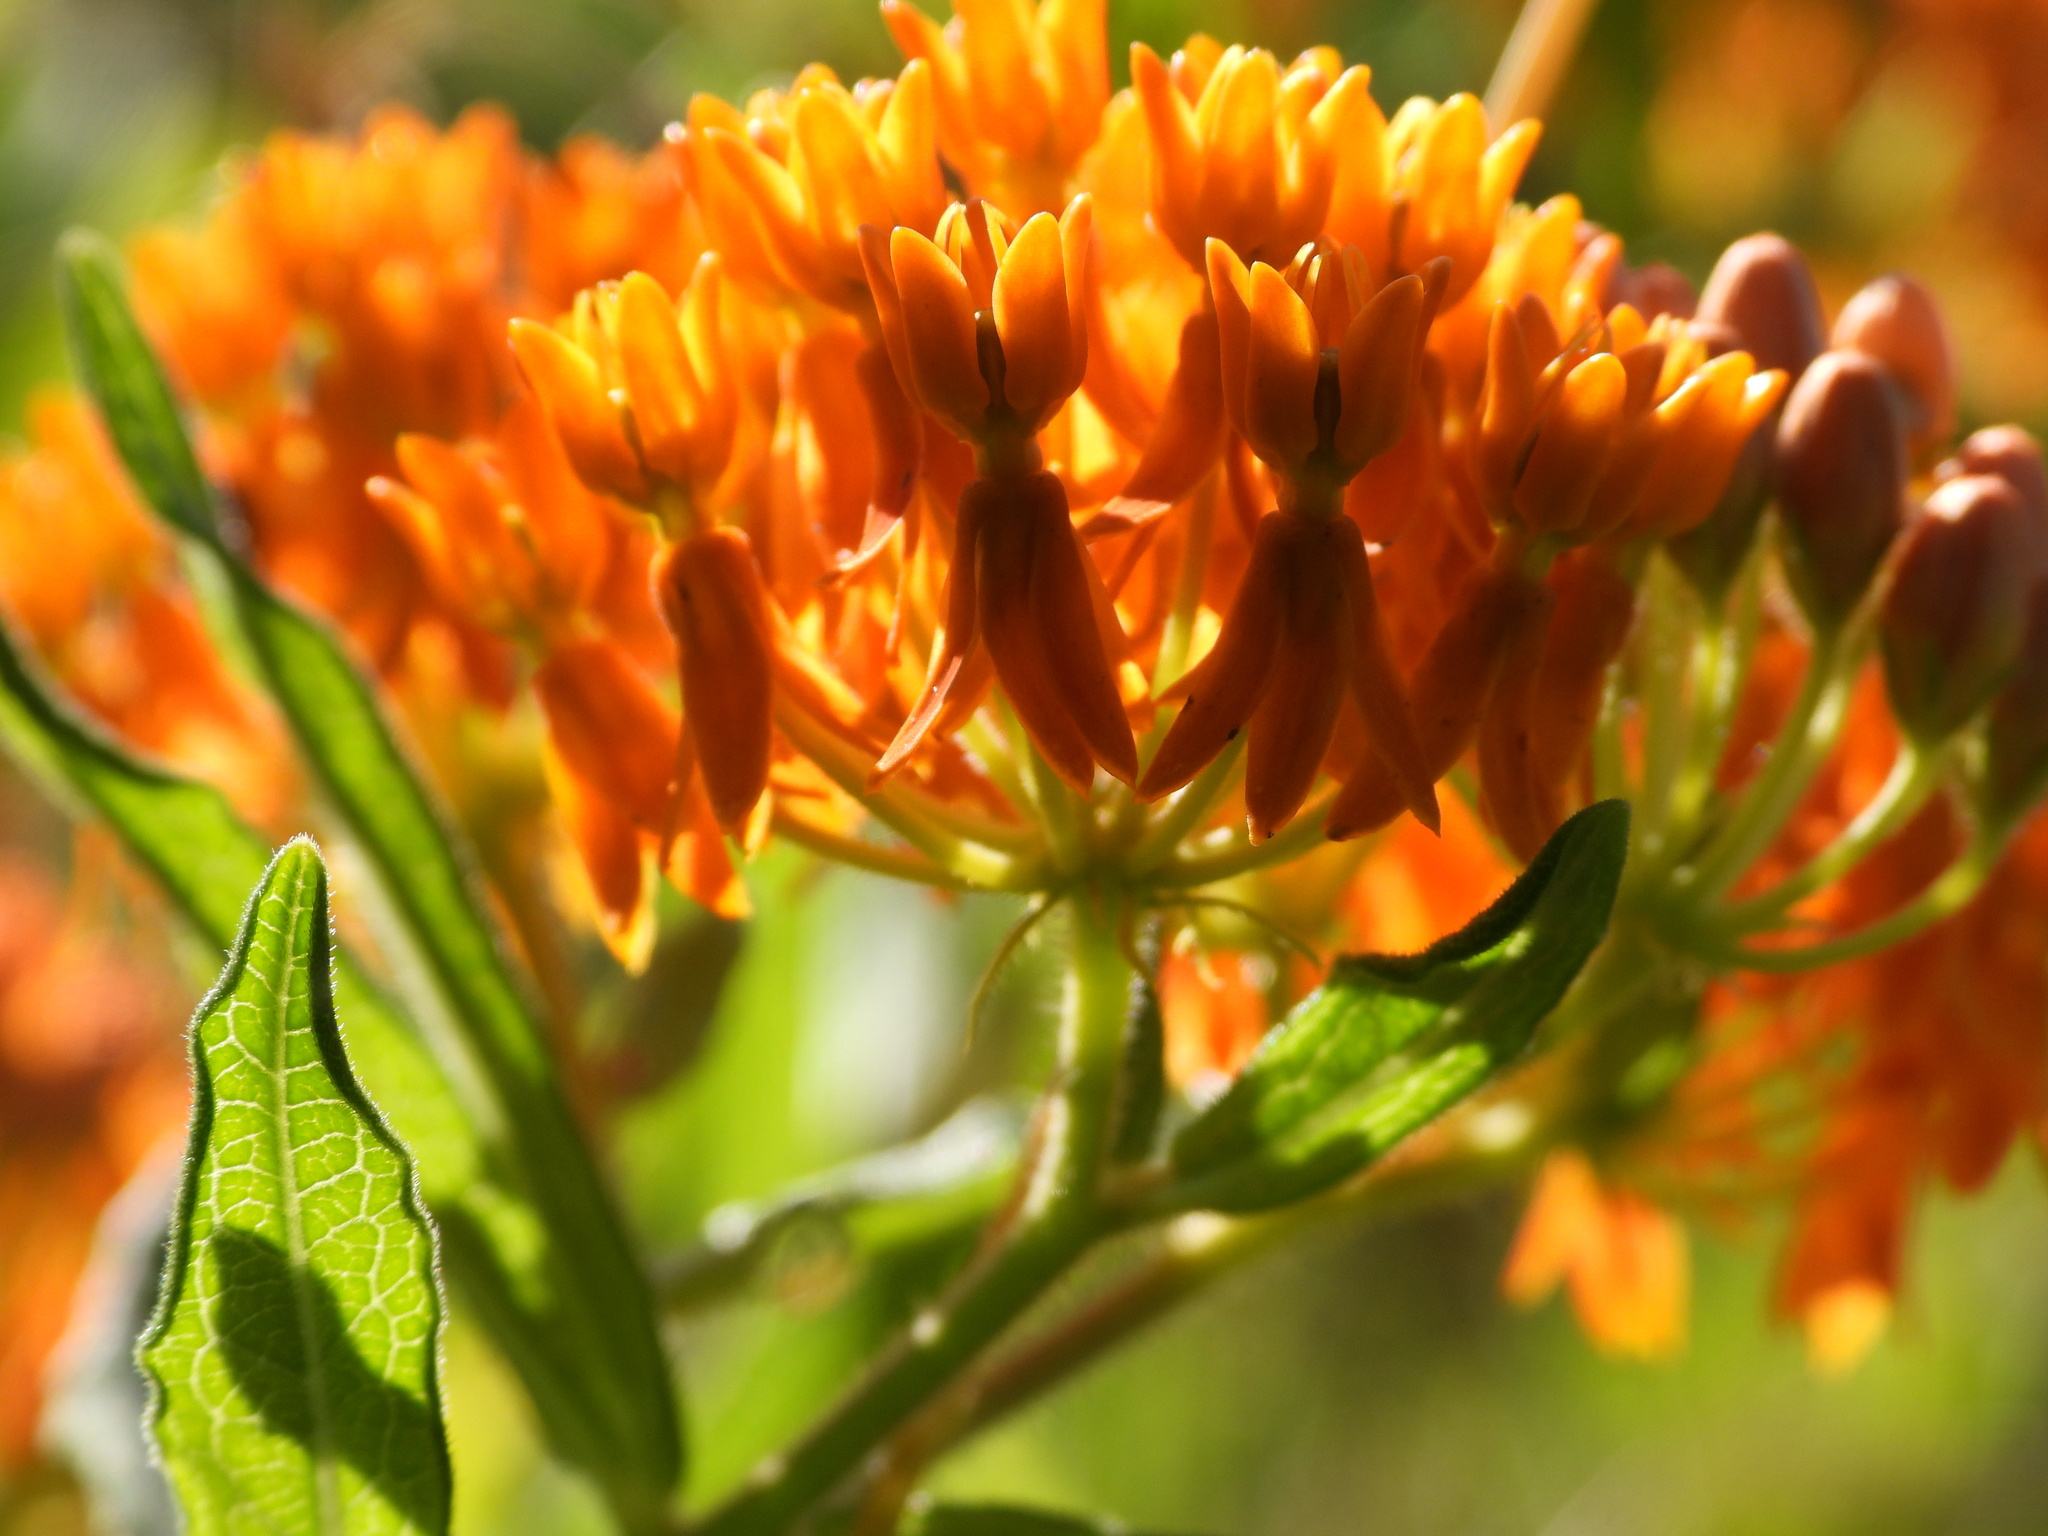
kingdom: Plantae
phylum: Tracheophyta
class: Magnoliopsida
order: Gentianales
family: Apocynaceae
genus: Asclepias
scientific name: Asclepias tuberosa
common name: Butterfly milkweed
